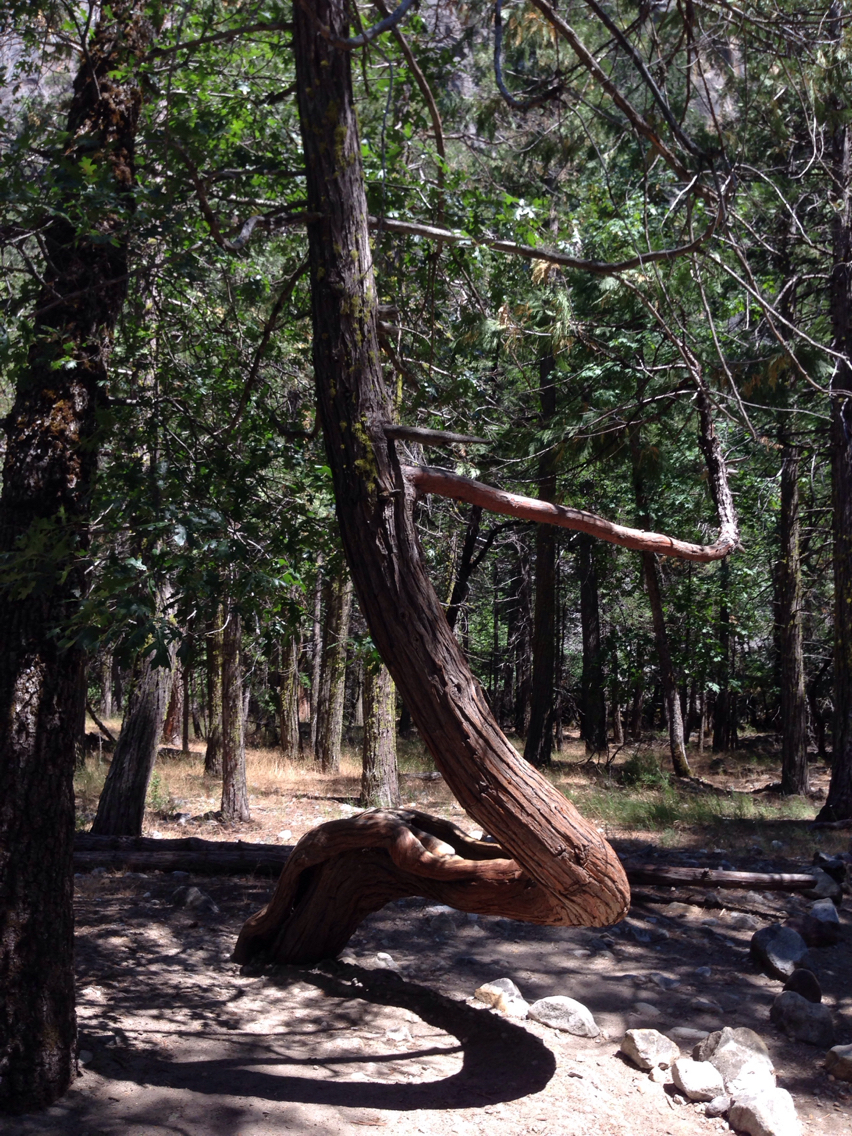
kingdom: Plantae
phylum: Tracheophyta
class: Pinopsida
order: Pinales
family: Cupressaceae
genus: Calocedrus
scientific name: Calocedrus decurrens
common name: Californian incense-cedar
